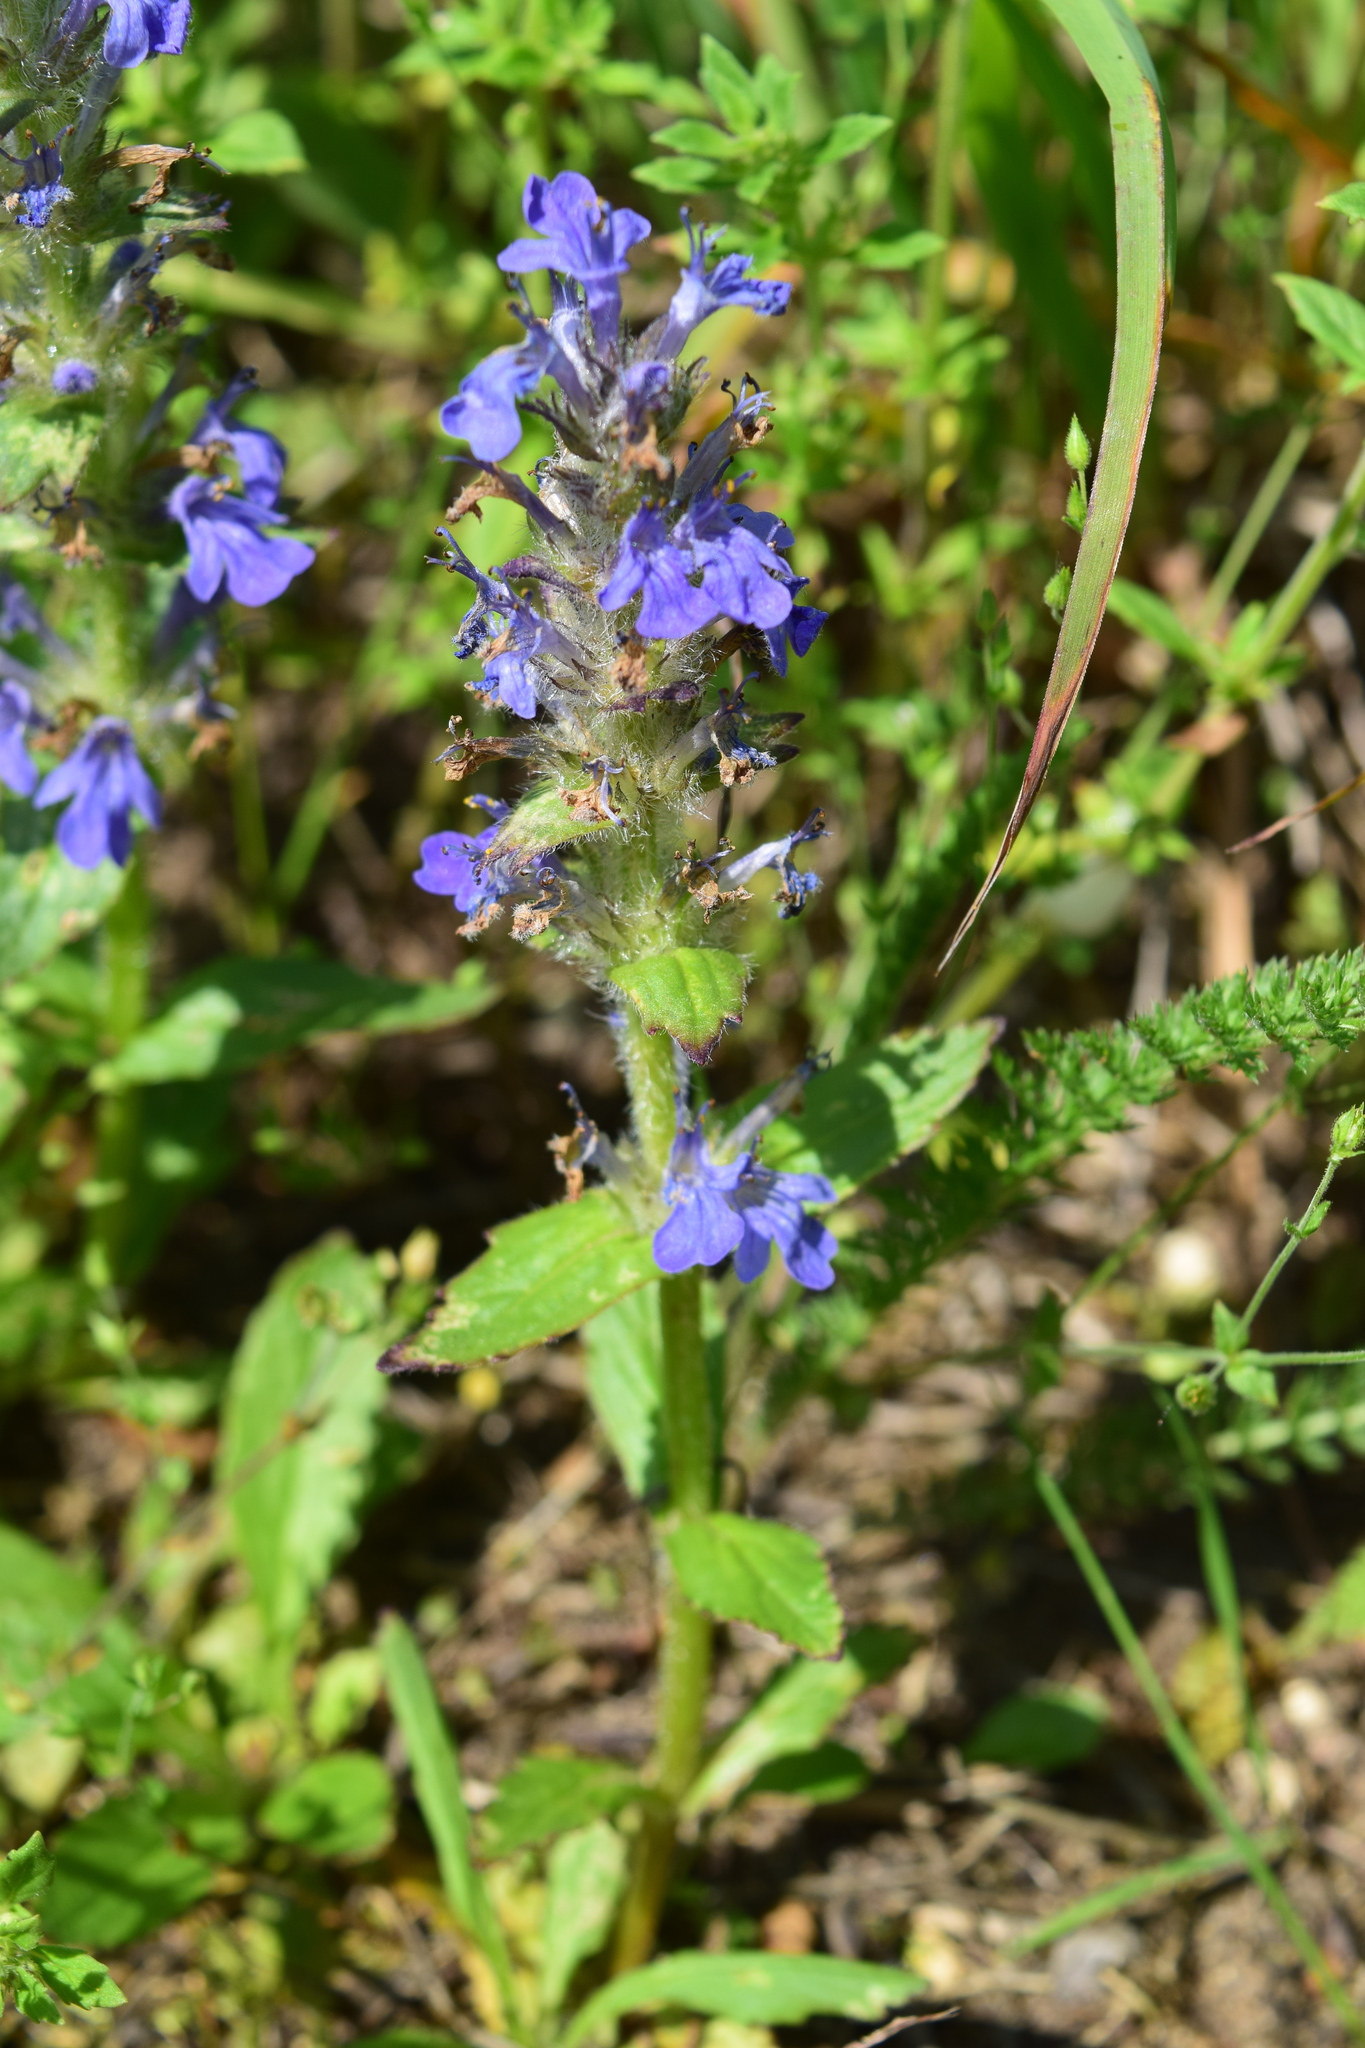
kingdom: Plantae
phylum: Tracheophyta
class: Magnoliopsida
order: Lamiales
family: Lamiaceae
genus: Ajuga
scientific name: Ajuga genevensis
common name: Blue bugle
